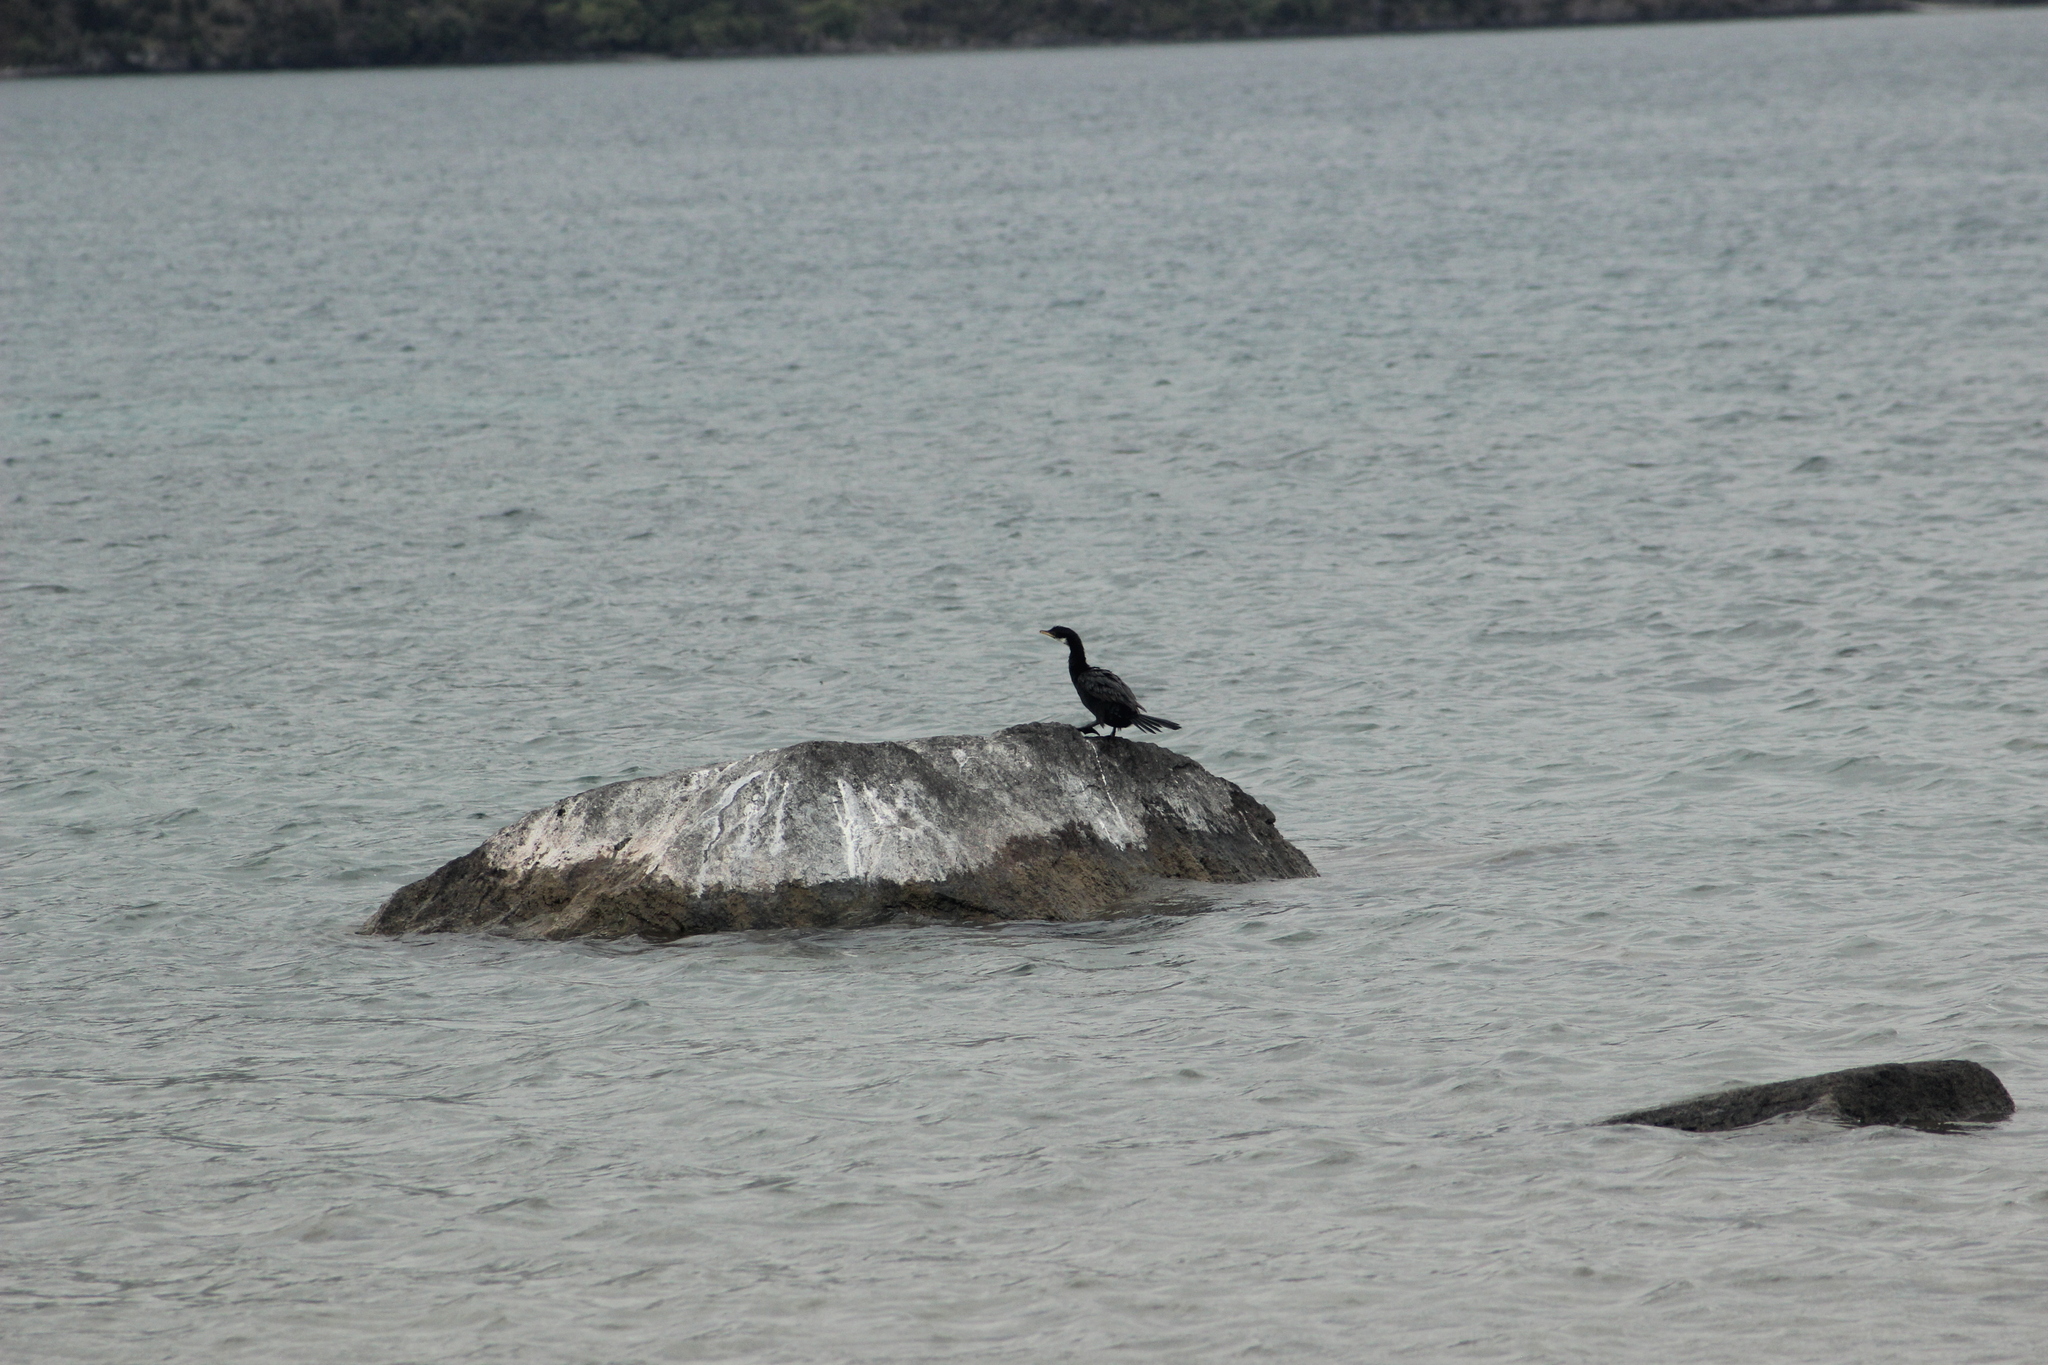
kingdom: Animalia
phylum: Chordata
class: Aves
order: Suliformes
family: Phalacrocoracidae
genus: Microcarbo
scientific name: Microcarbo melanoleucos
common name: Little pied cormorant
